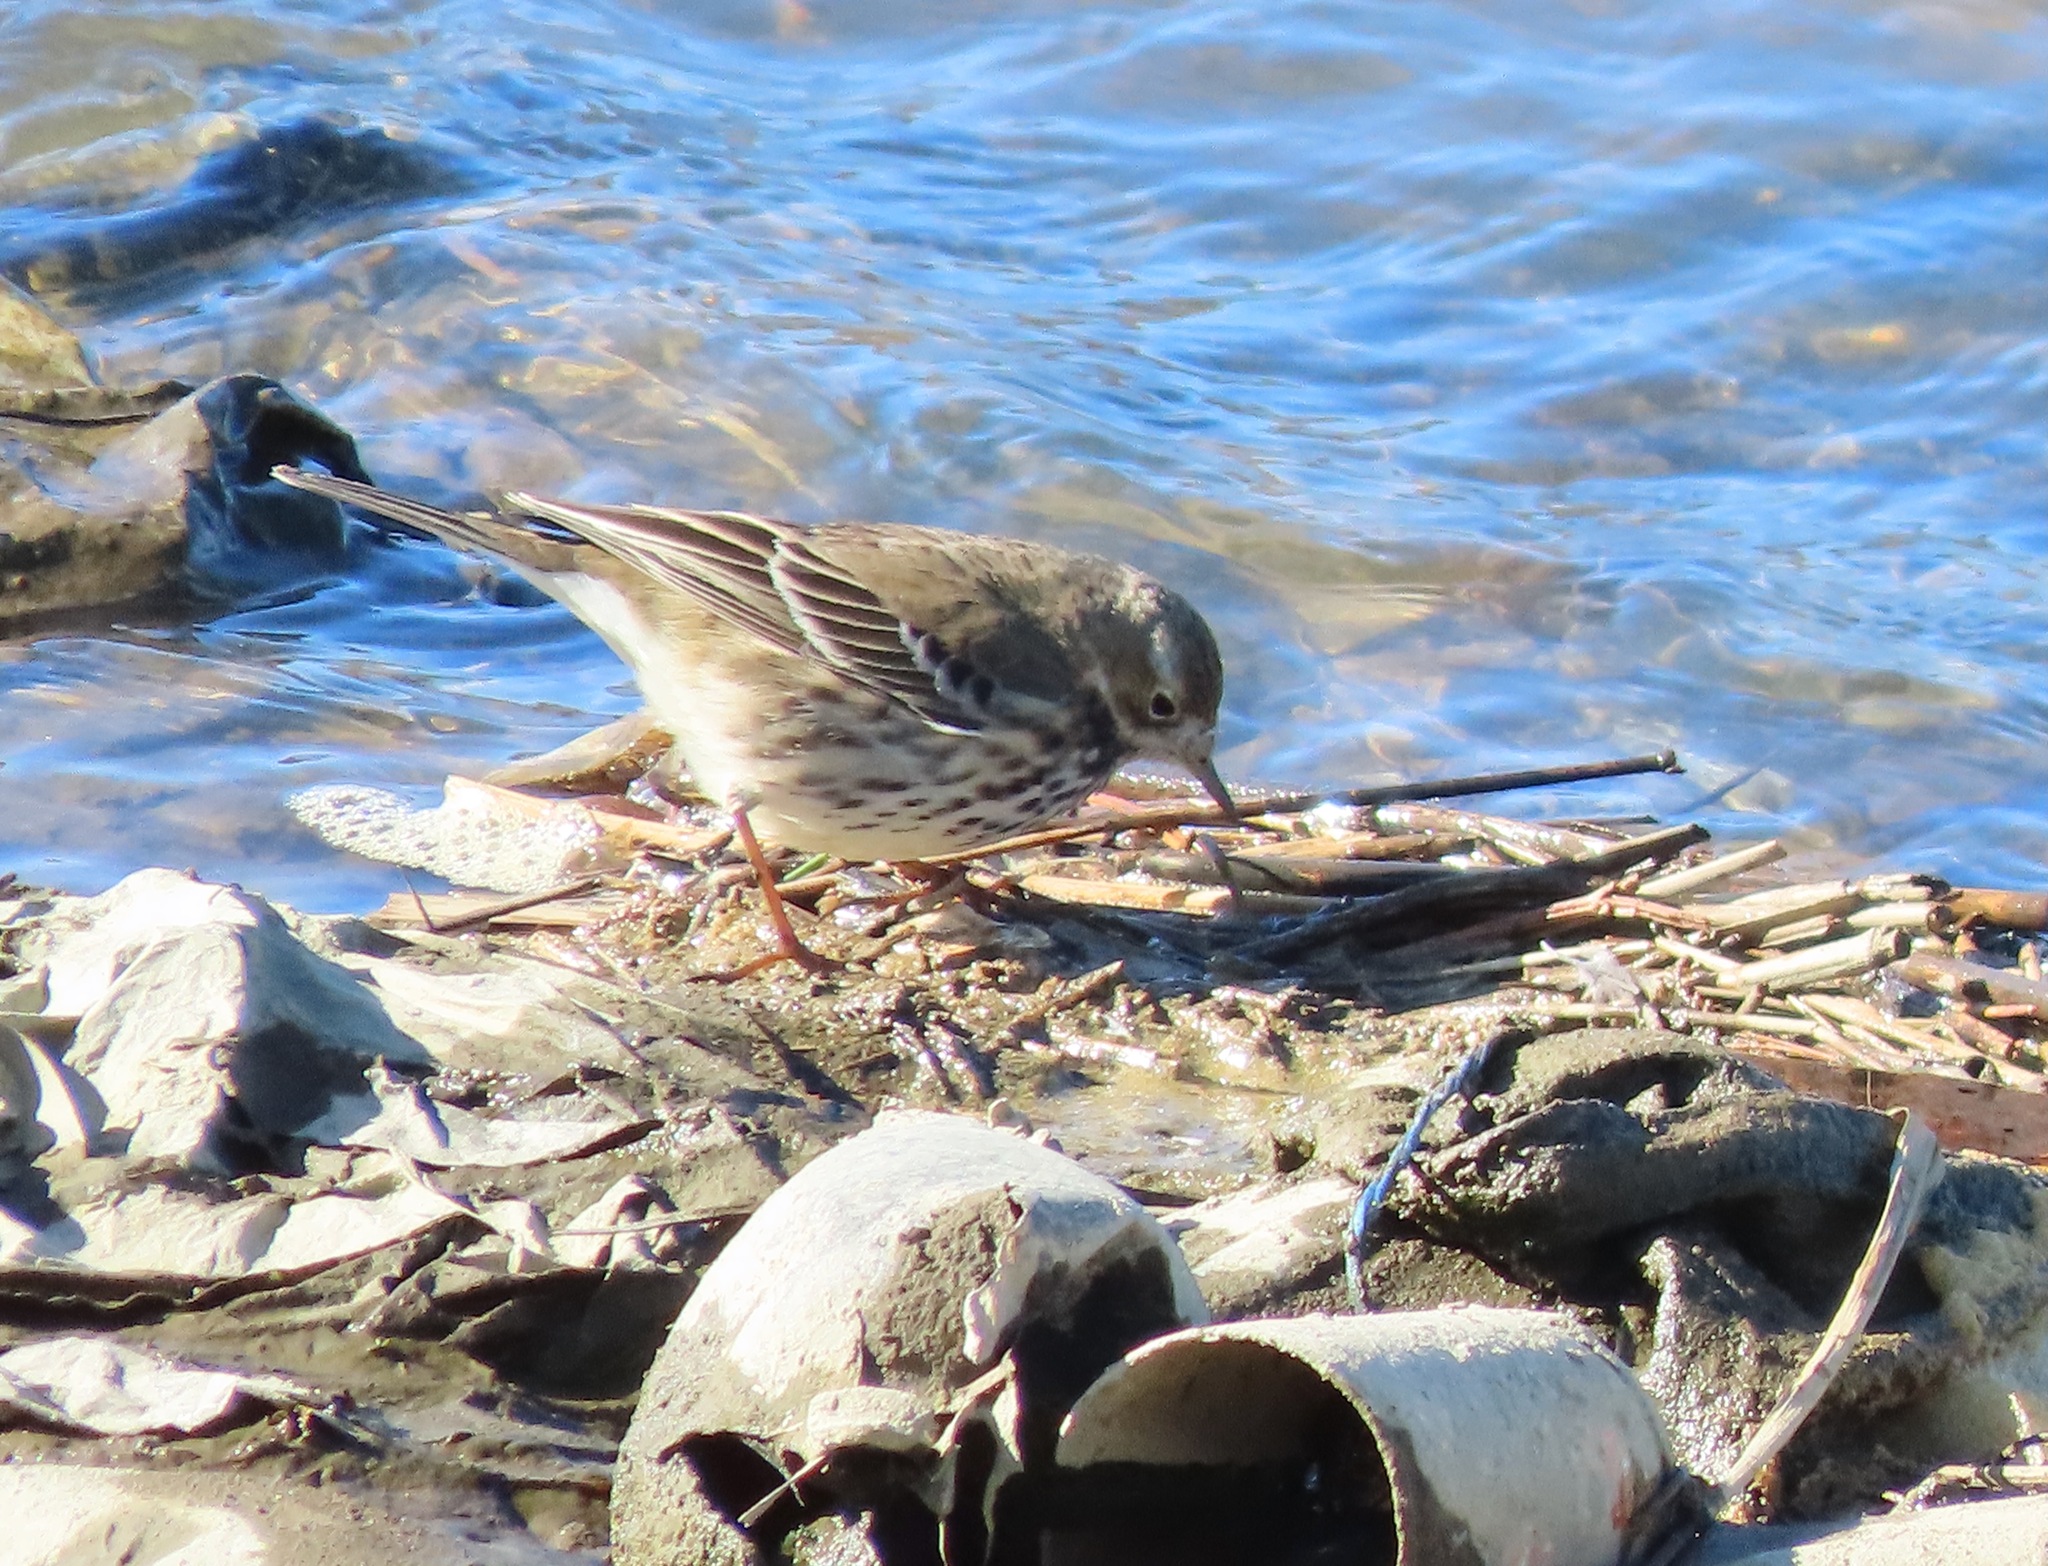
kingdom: Animalia
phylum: Chordata
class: Aves
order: Passeriformes
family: Motacillidae
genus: Anthus
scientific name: Anthus rubescens
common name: Buff-bellied pipit
